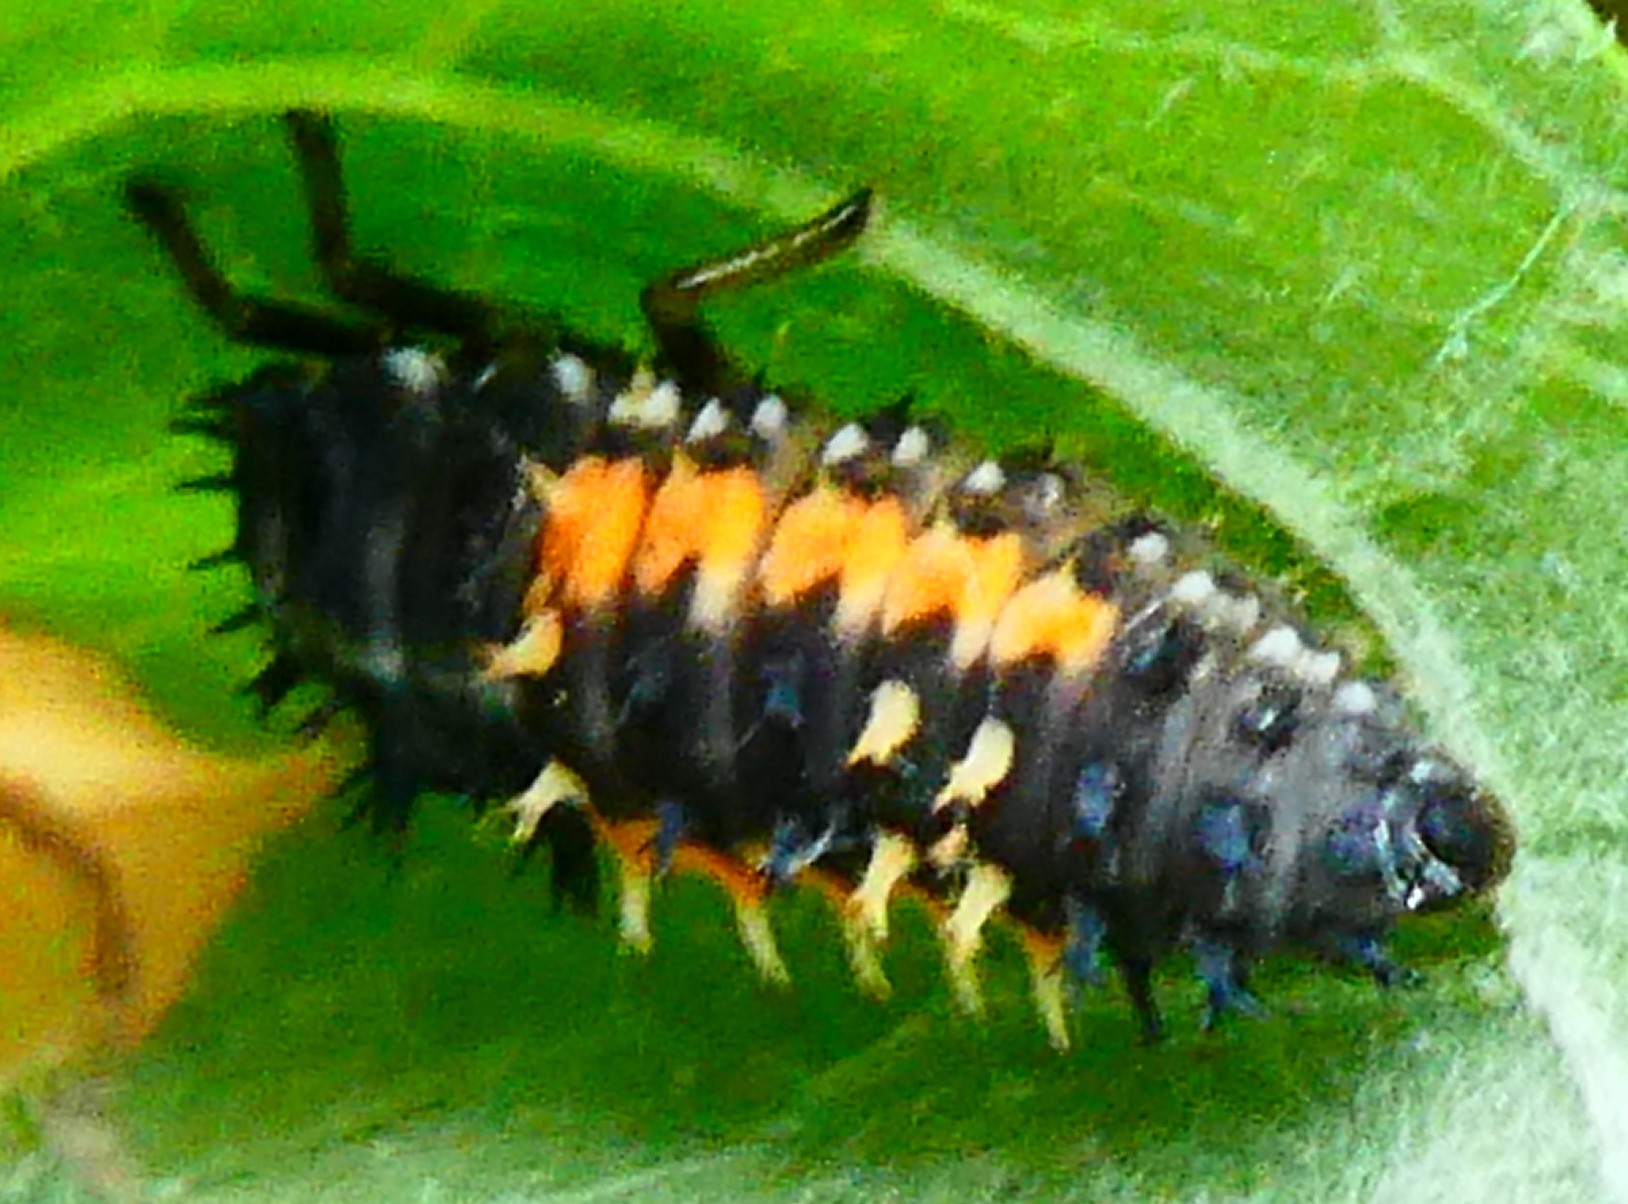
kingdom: Animalia
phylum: Arthropoda
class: Insecta
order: Coleoptera
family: Coccinellidae
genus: Harmonia
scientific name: Harmonia axyridis
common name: Harlequin ladybird
